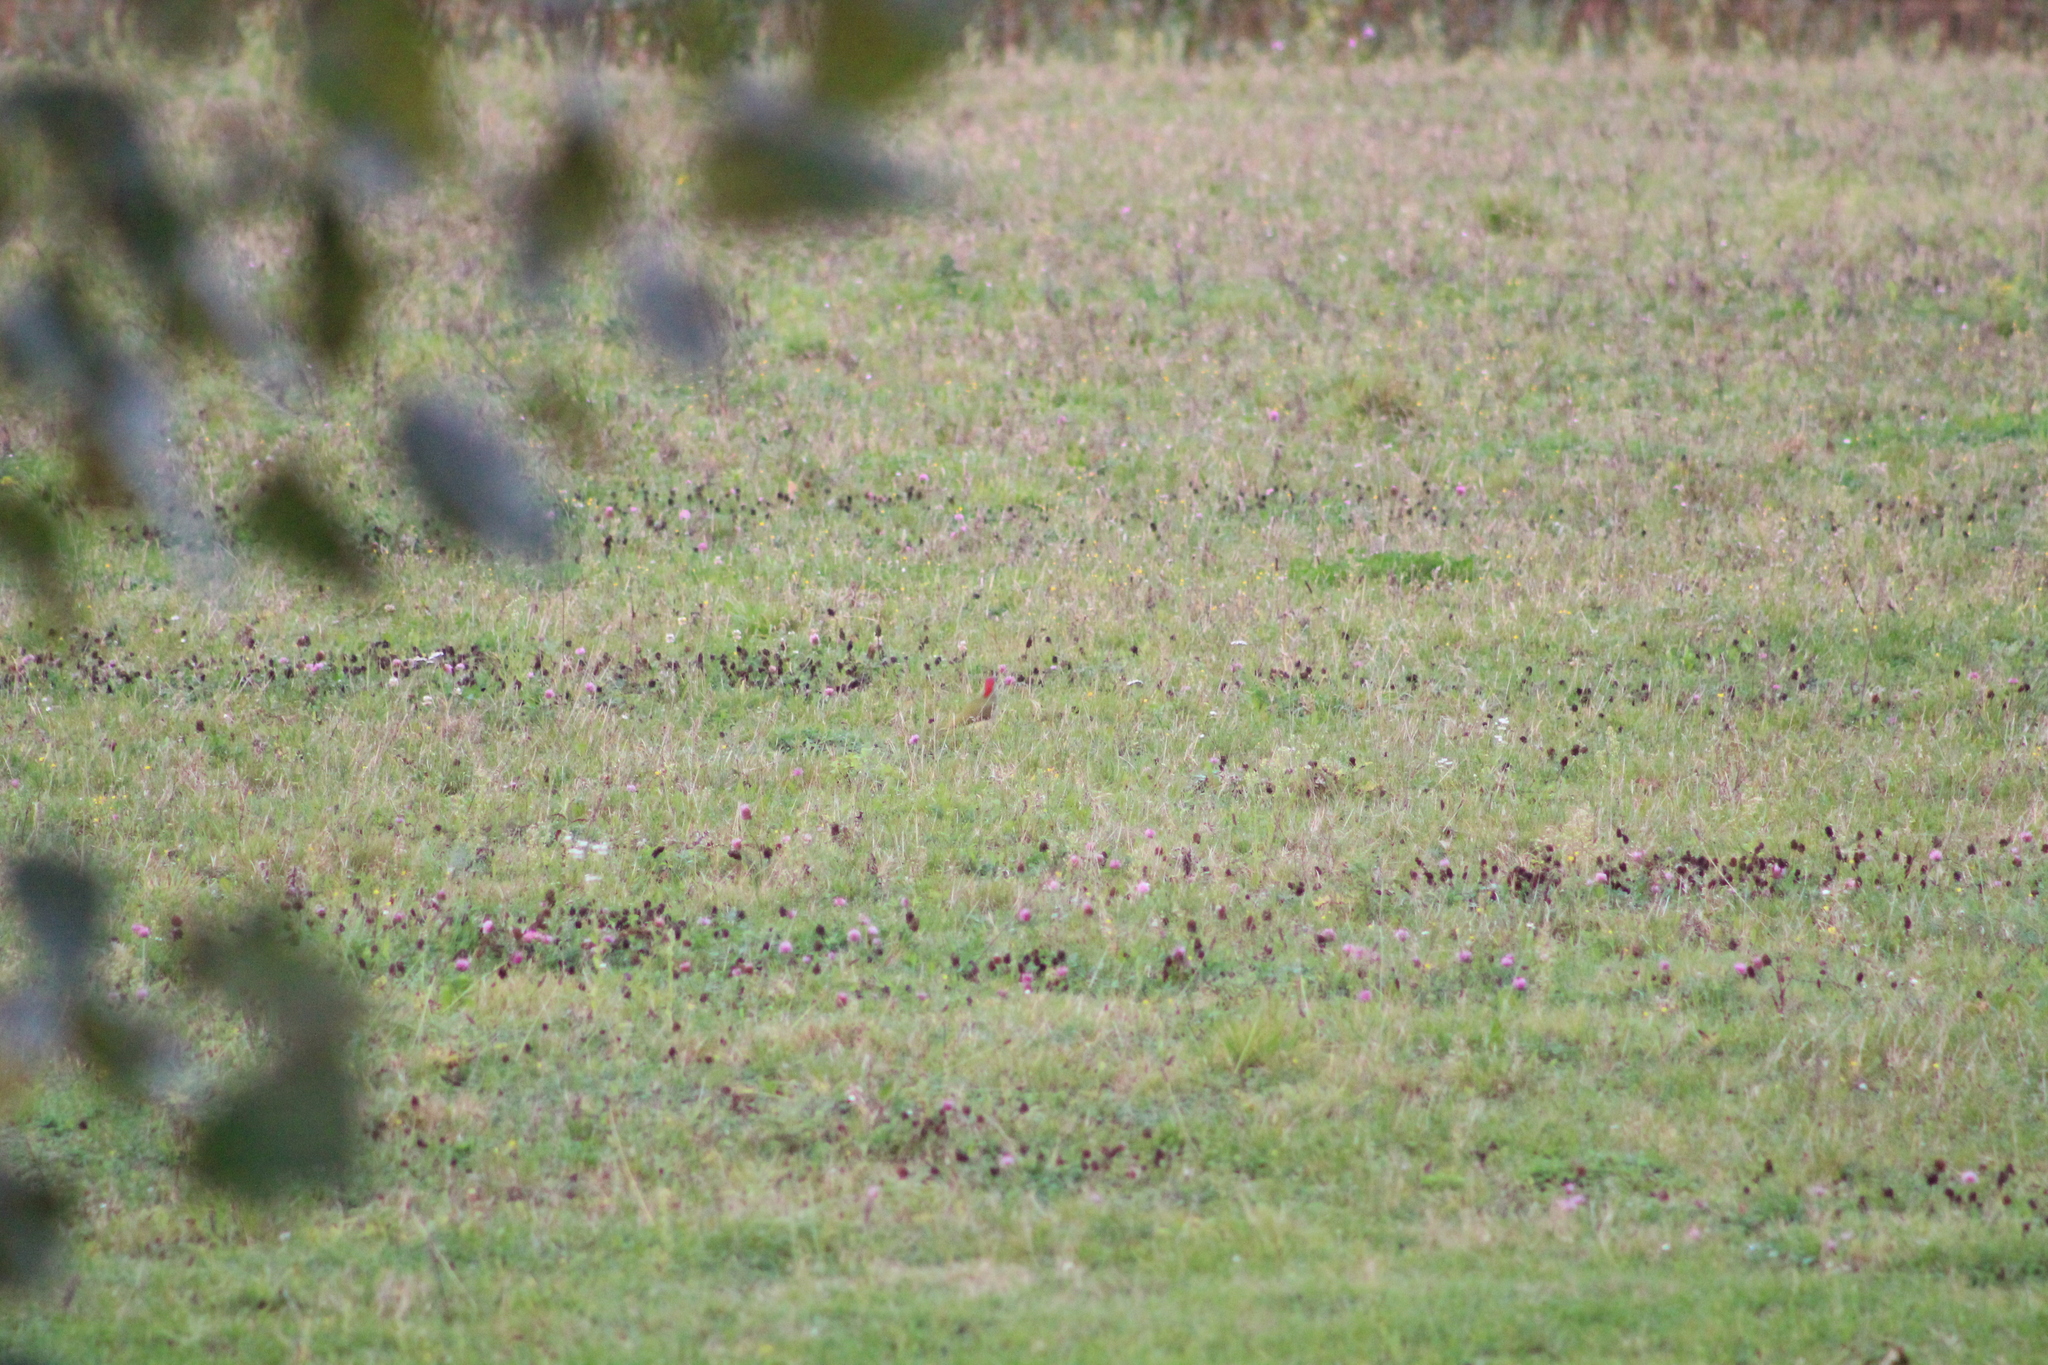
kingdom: Animalia
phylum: Chordata
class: Aves
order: Piciformes
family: Picidae
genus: Picus
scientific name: Picus viridis
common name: European green woodpecker
